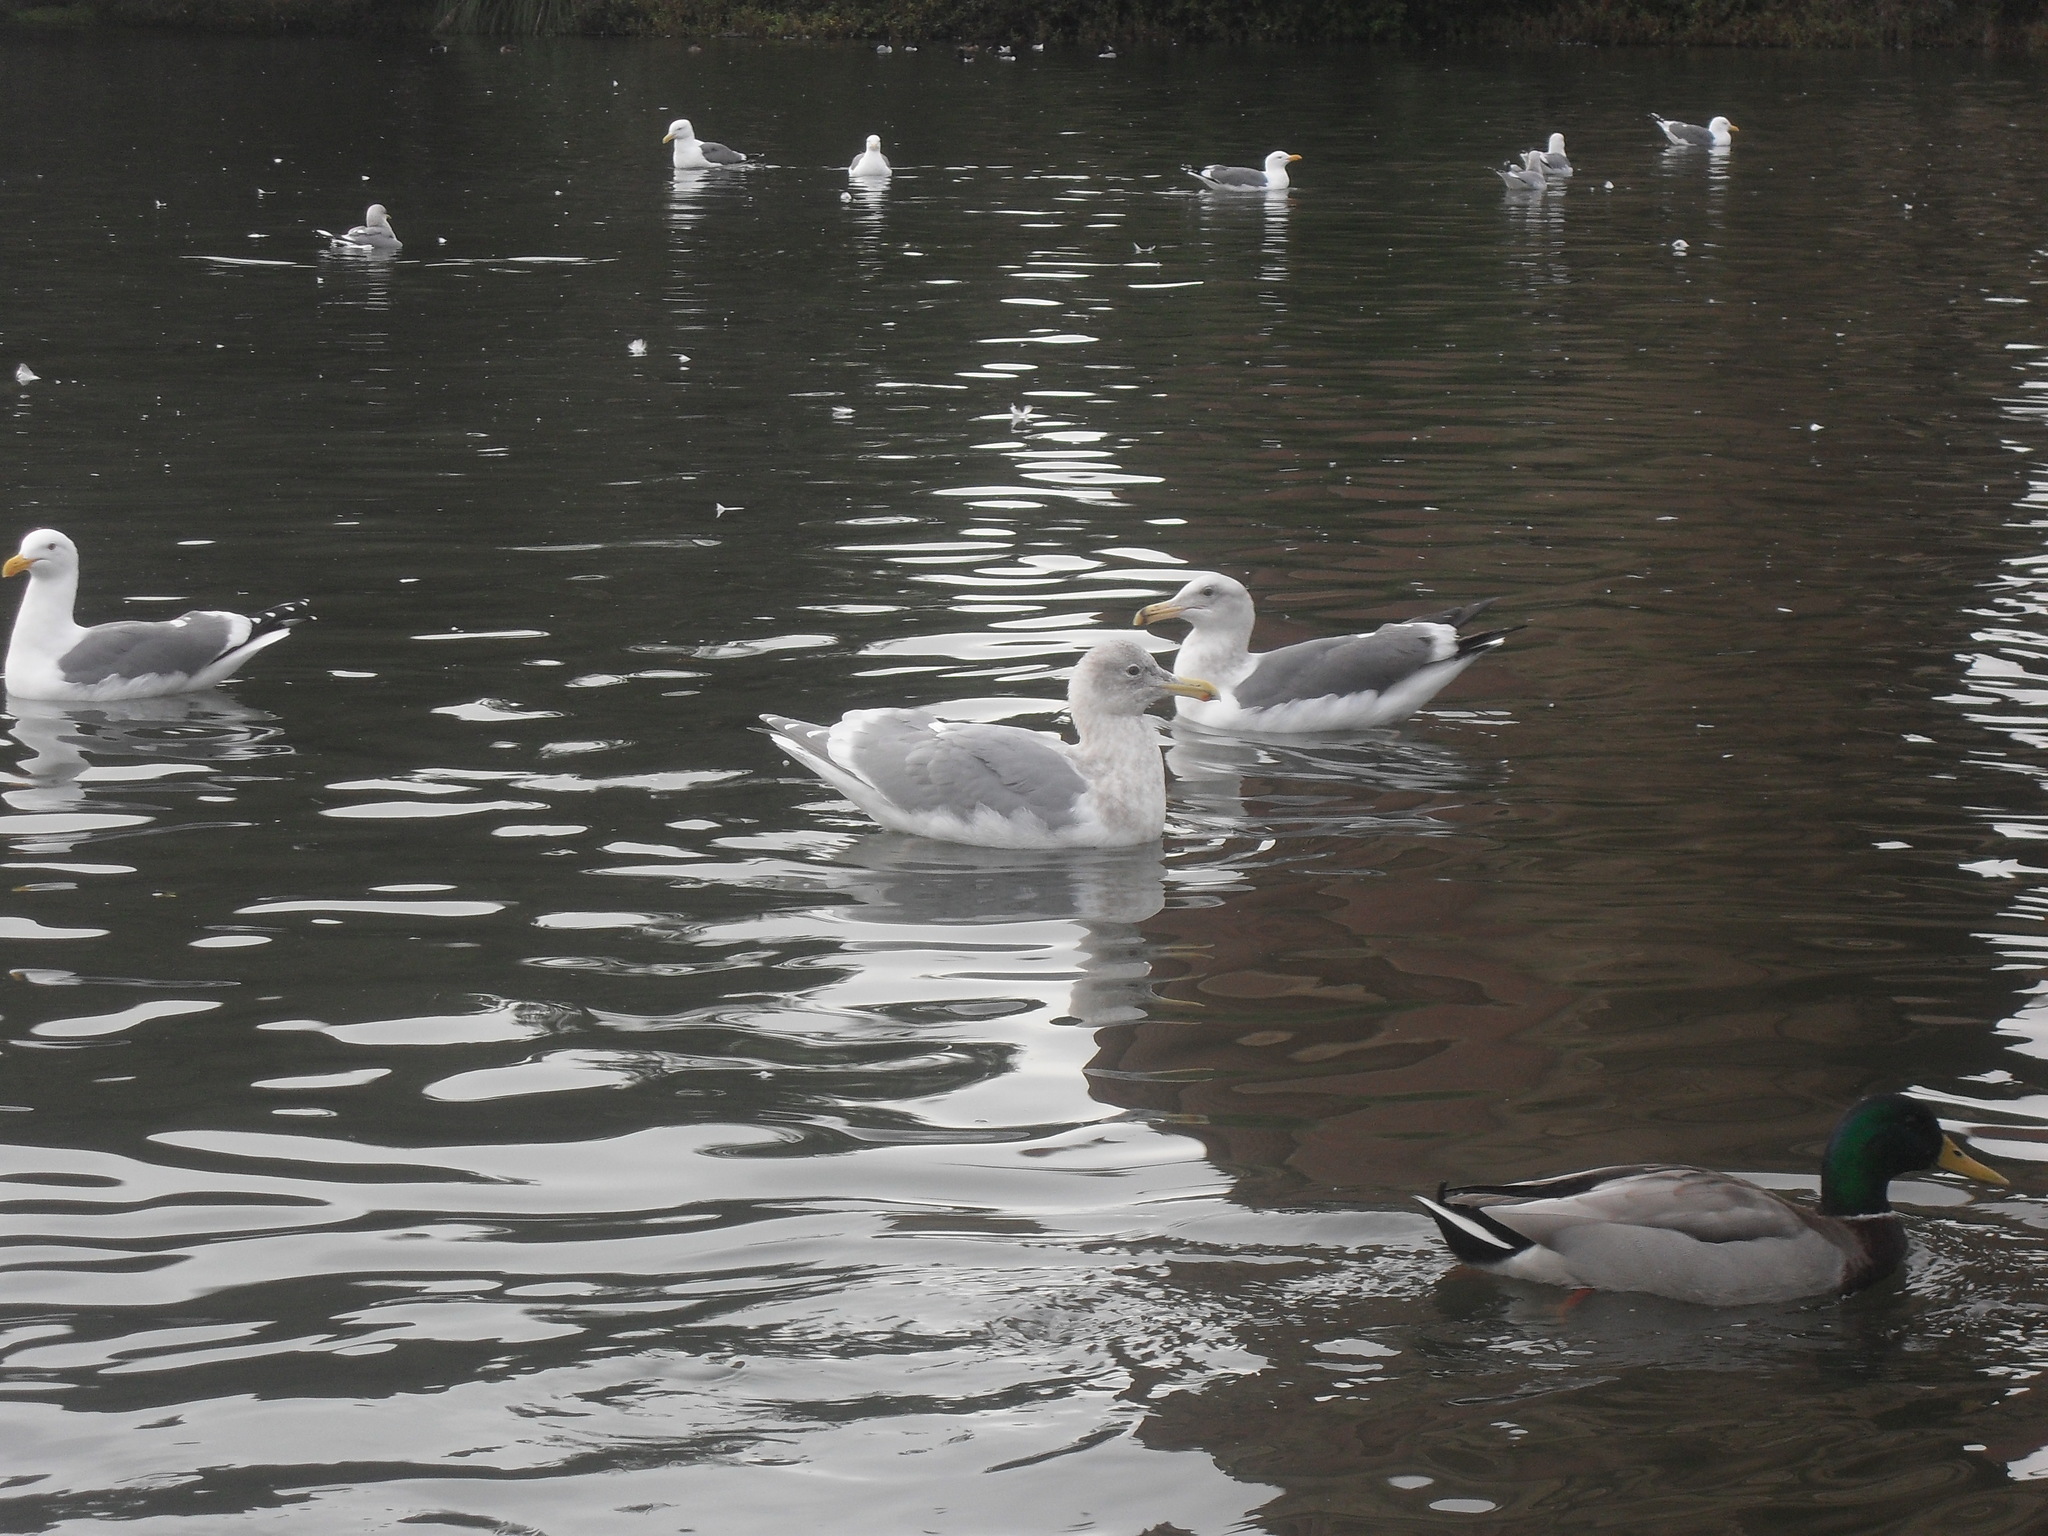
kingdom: Animalia
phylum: Chordata
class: Aves
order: Charadriiformes
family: Laridae
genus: Larus
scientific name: Larus glaucescens
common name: Glaucous-winged gull
